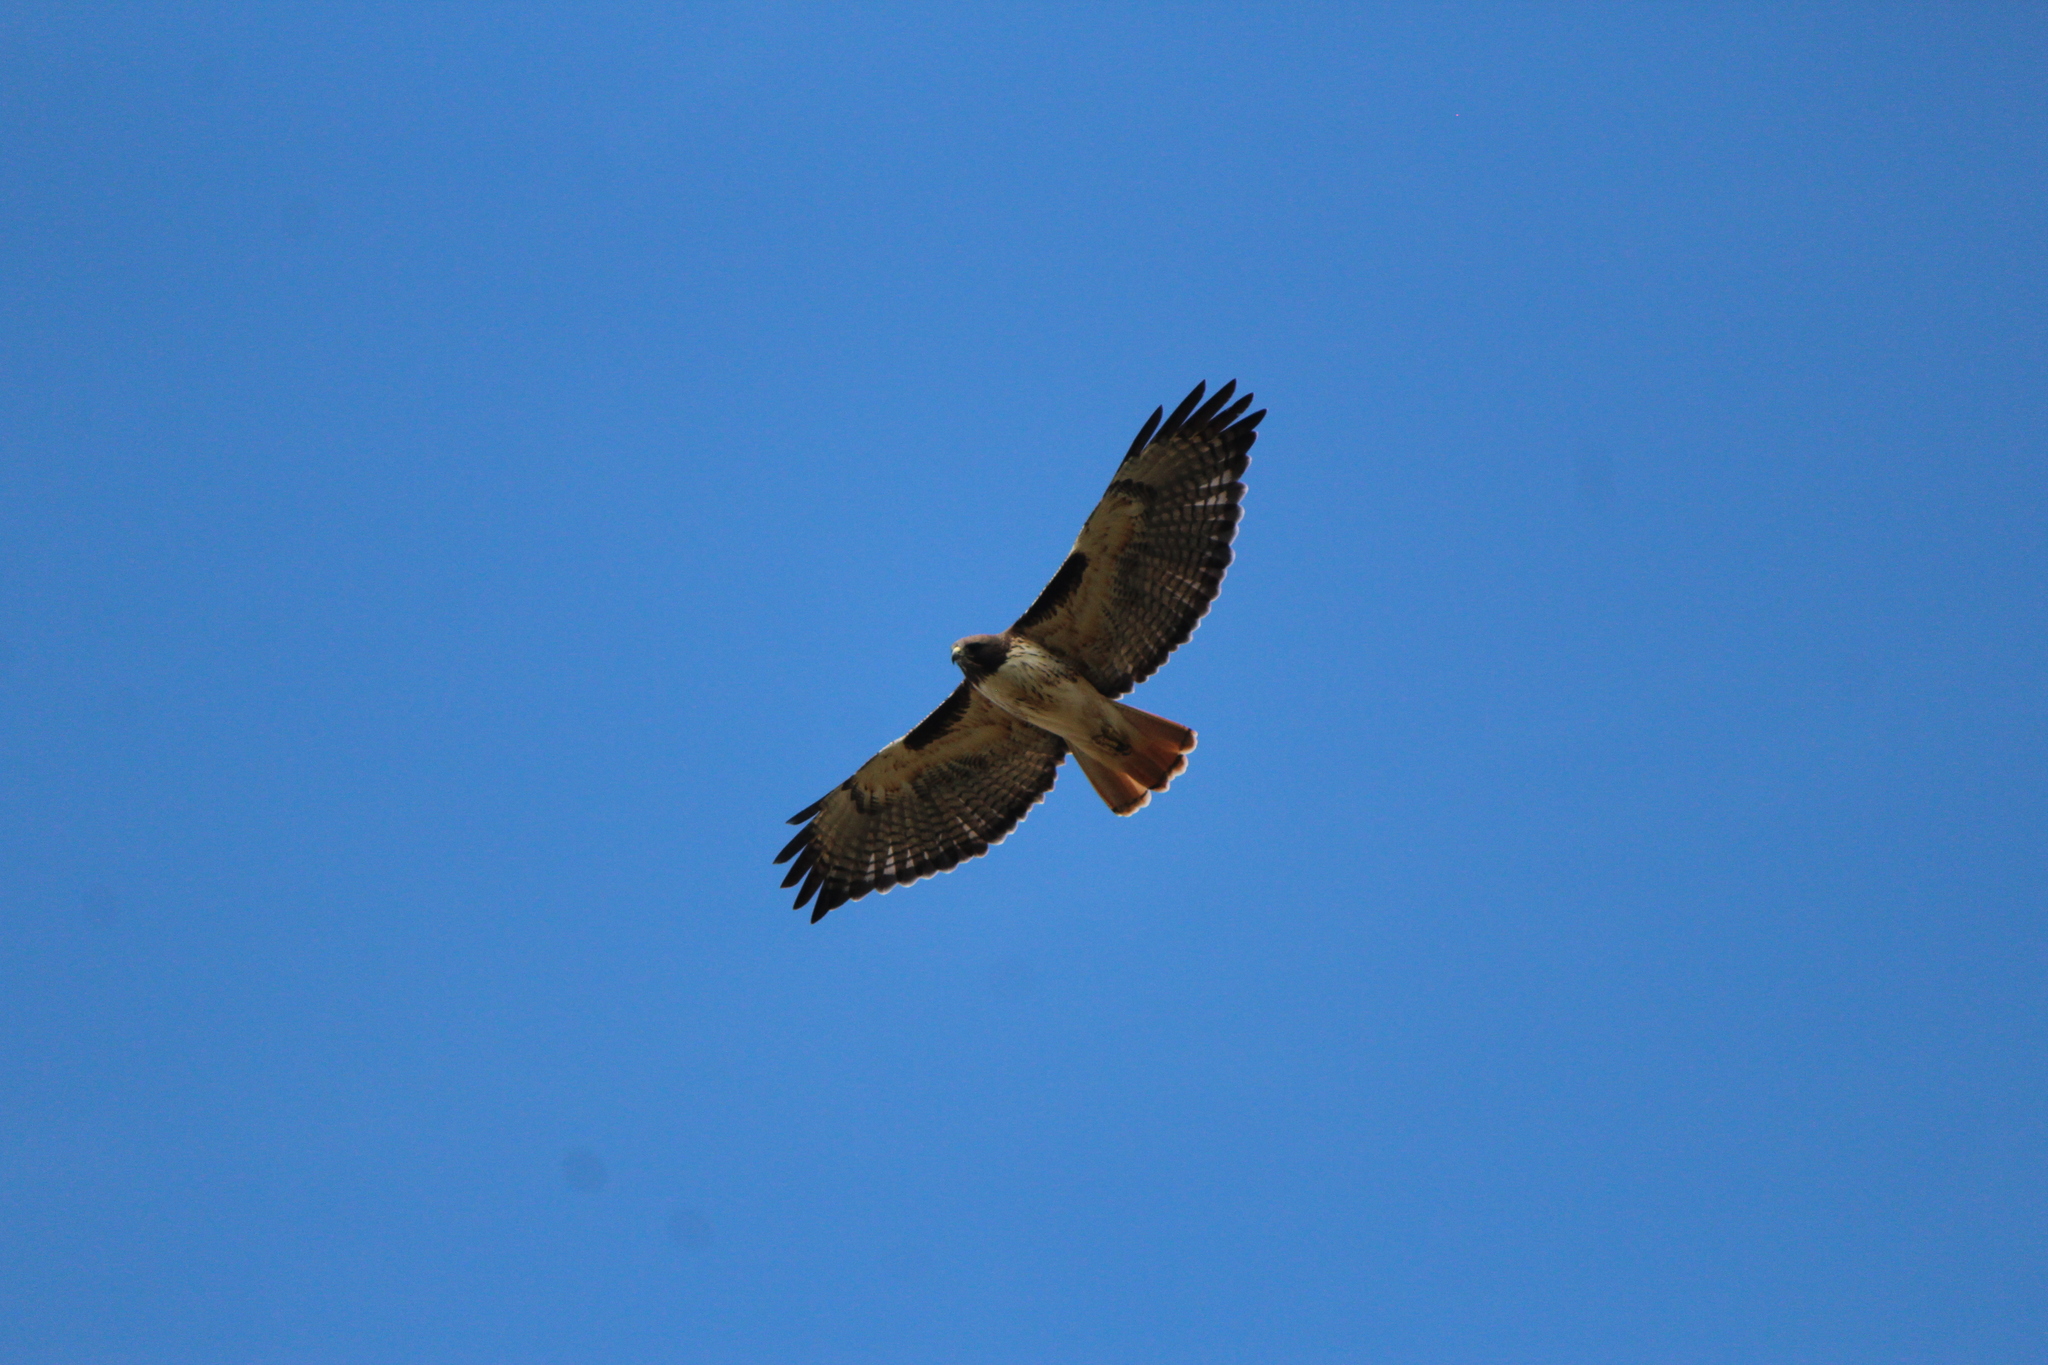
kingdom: Animalia
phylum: Chordata
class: Aves
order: Accipitriformes
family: Accipitridae
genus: Buteo
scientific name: Buteo jamaicensis
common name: Red-tailed hawk
